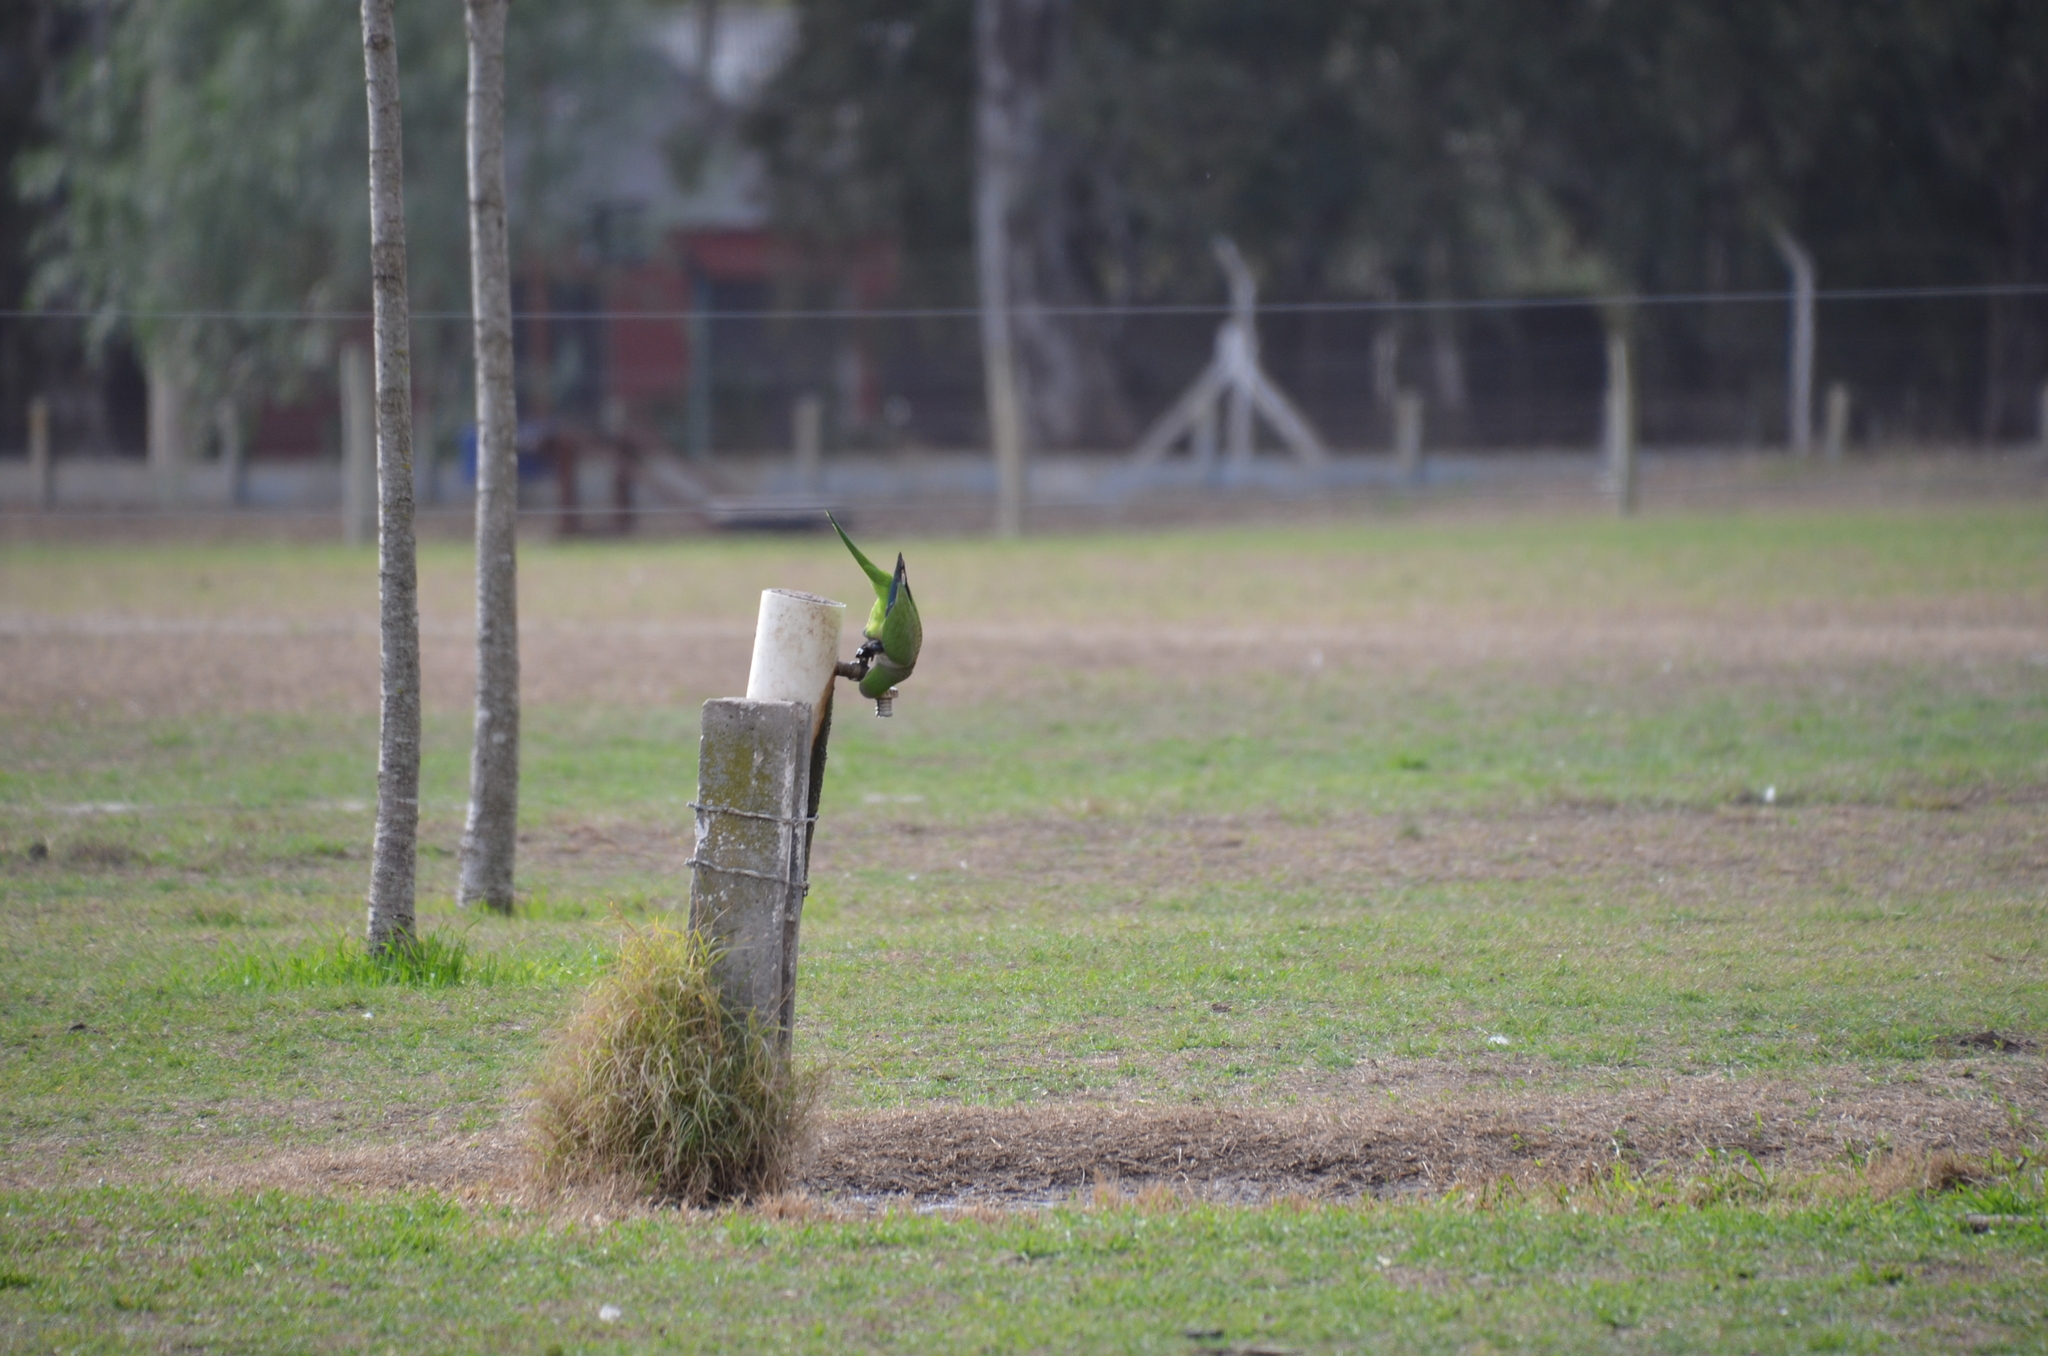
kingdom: Animalia
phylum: Chordata
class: Aves
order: Psittaciformes
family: Psittacidae
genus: Myiopsitta
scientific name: Myiopsitta monachus
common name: Monk parakeet
